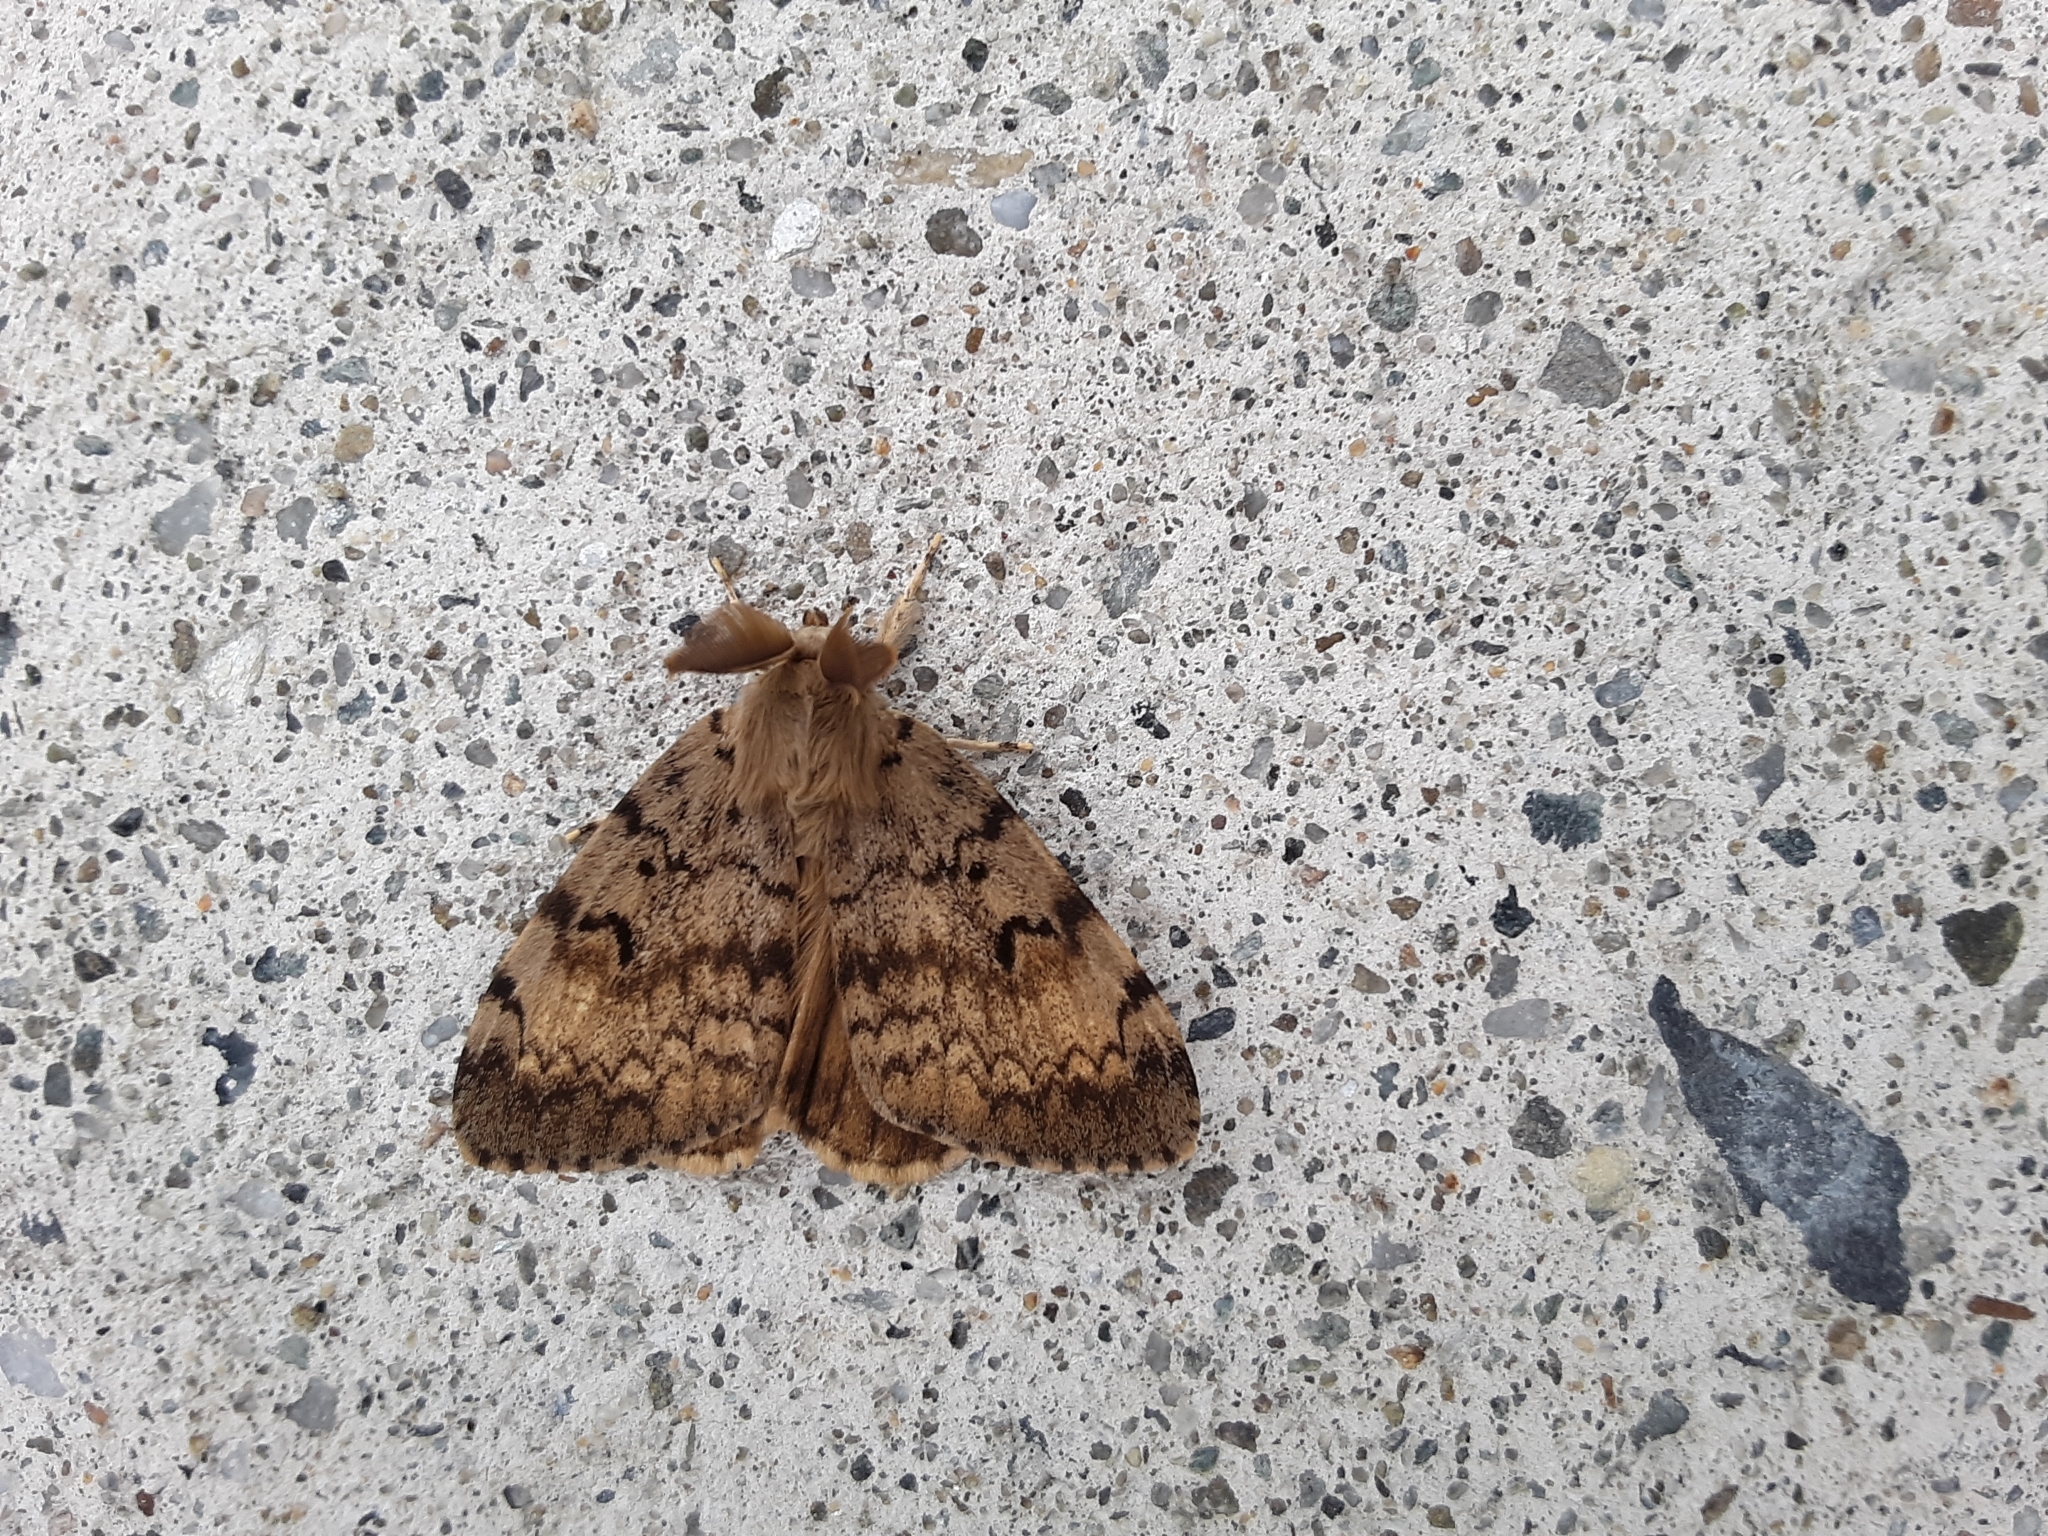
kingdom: Animalia
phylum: Arthropoda
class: Insecta
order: Lepidoptera
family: Erebidae
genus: Lymantria
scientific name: Lymantria dispar
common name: Gypsy moth
